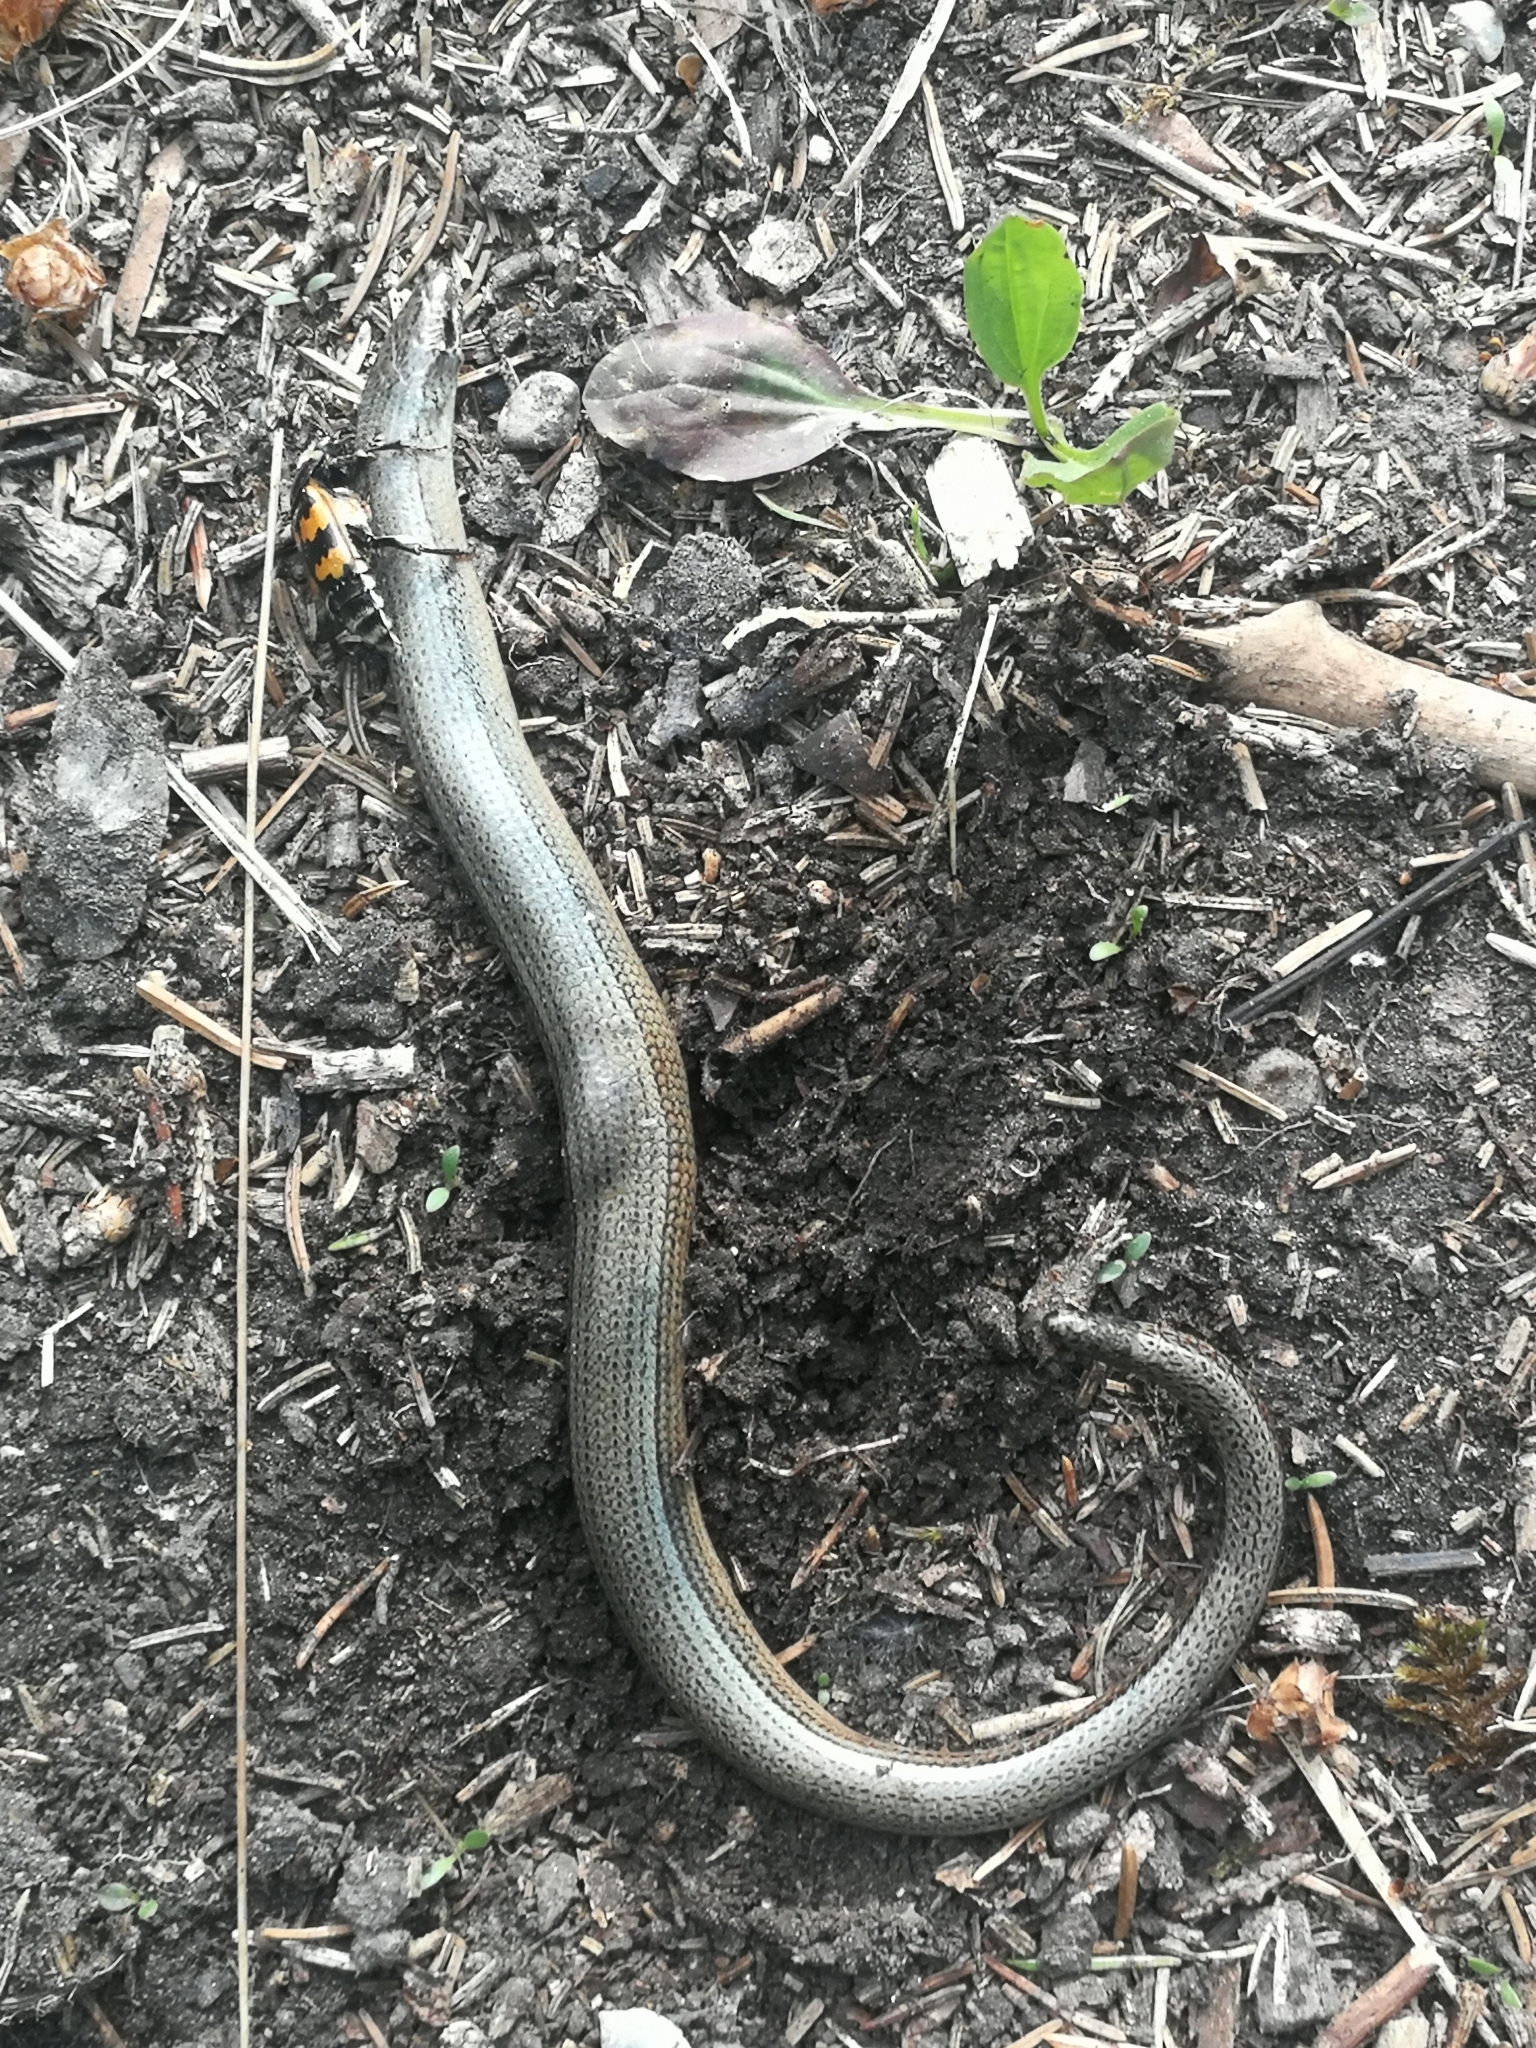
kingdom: Animalia
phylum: Arthropoda
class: Insecta
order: Coleoptera
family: Staphylinidae
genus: Nicrophorus
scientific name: Nicrophorus vespillo
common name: Common burying beetle
